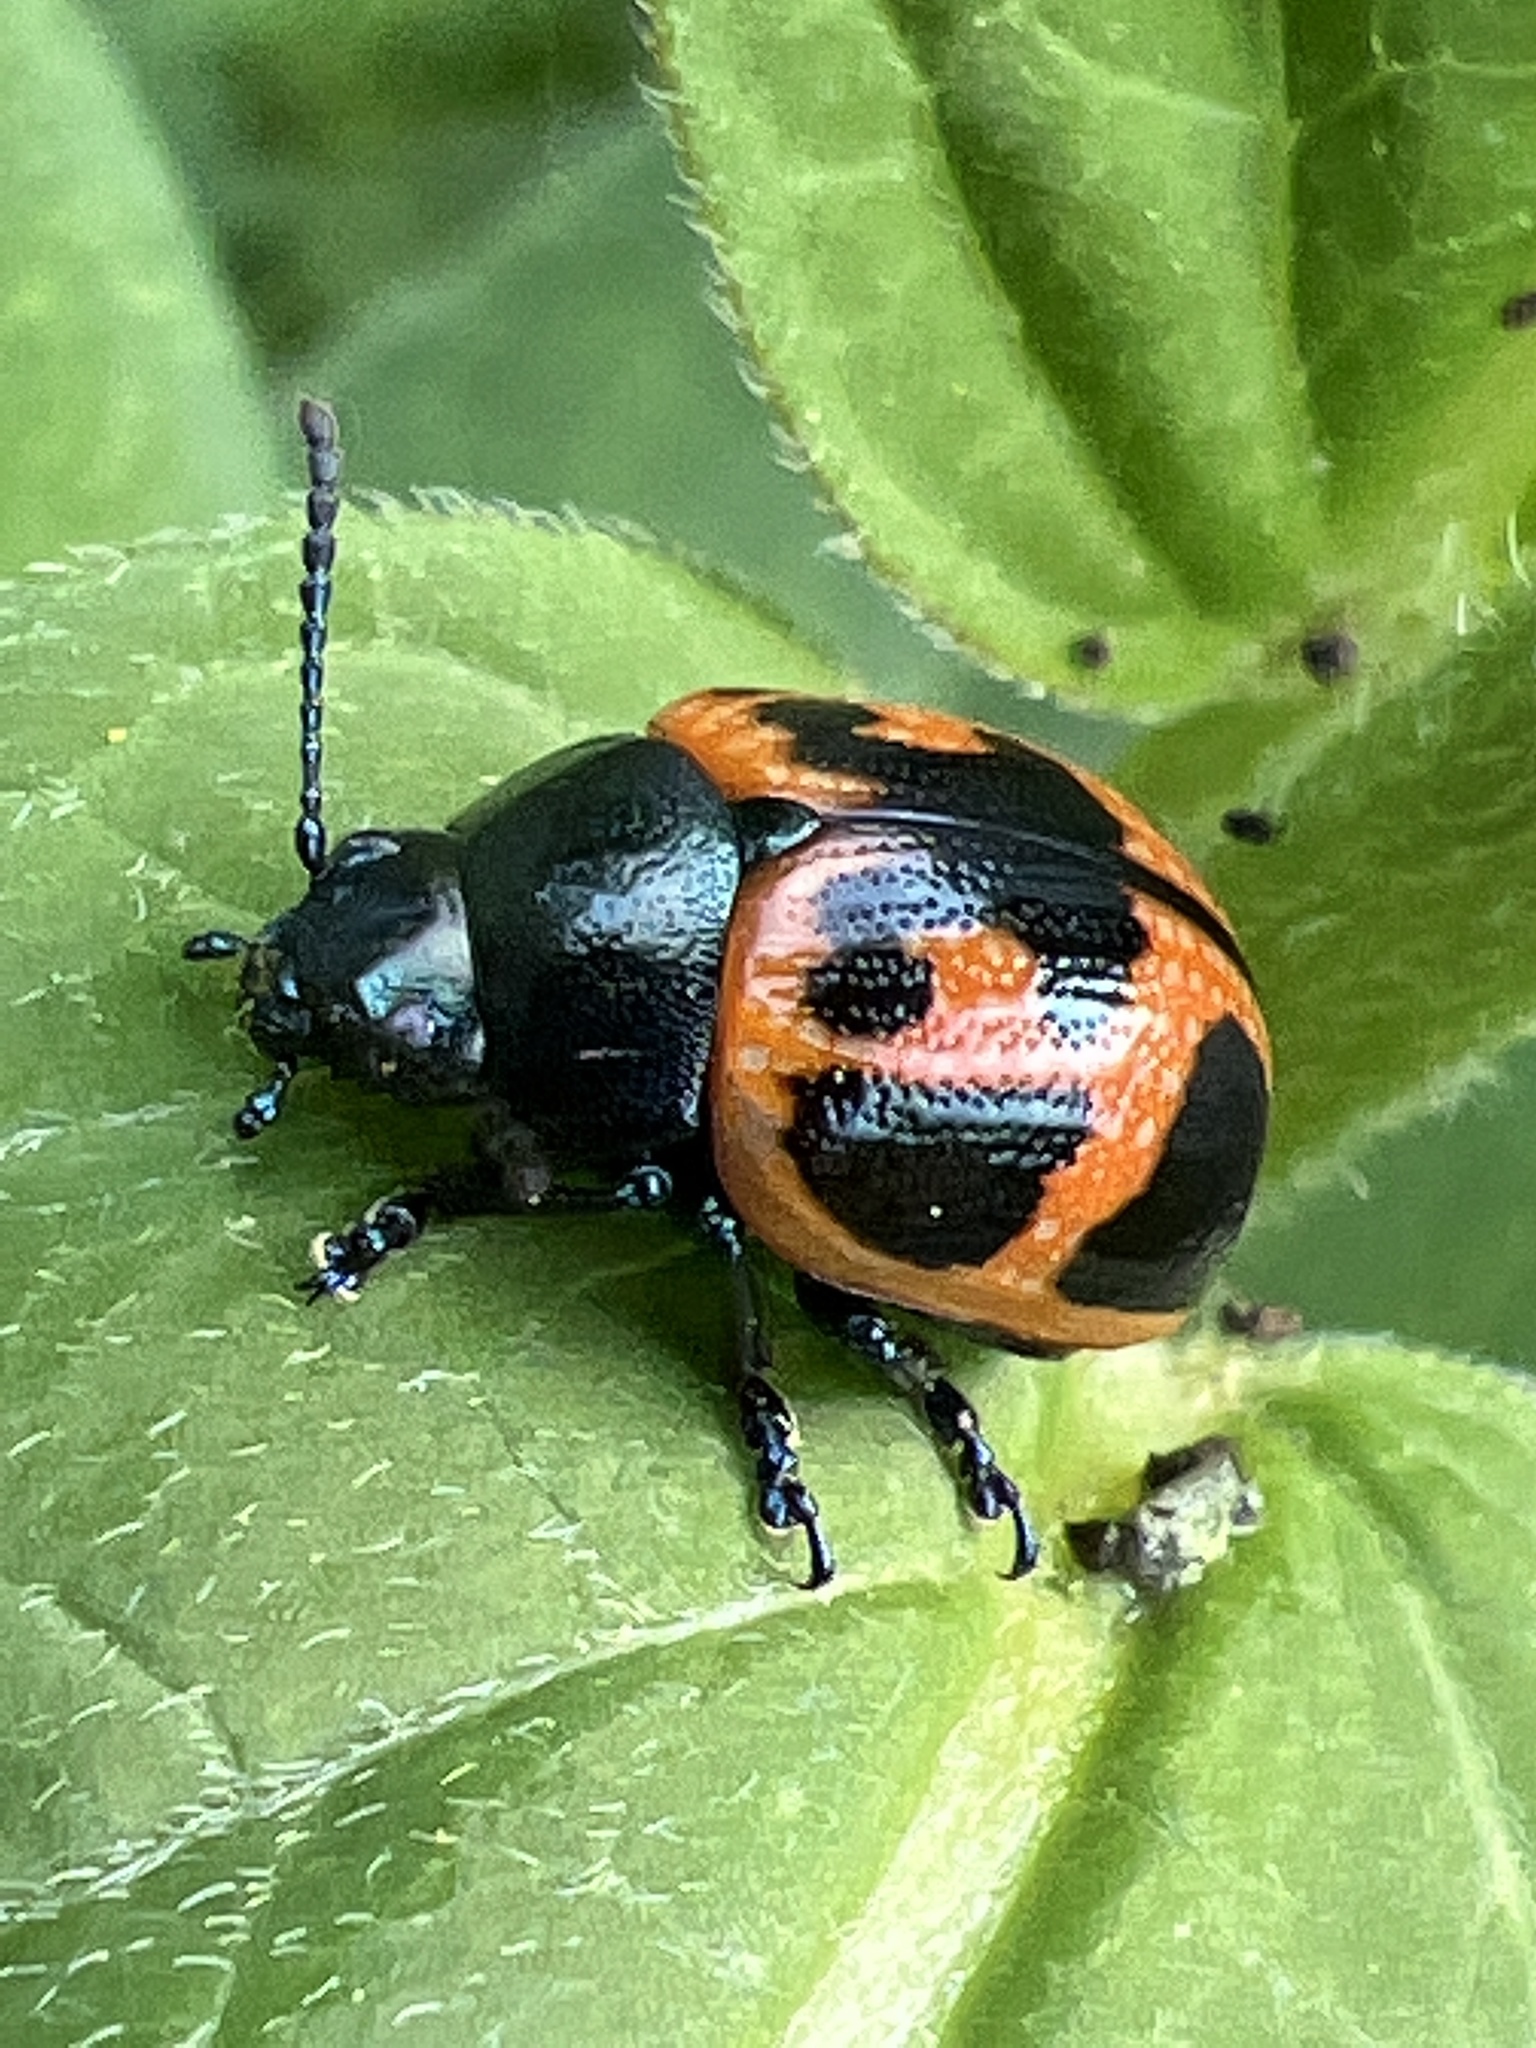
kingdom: Animalia
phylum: Arthropoda
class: Insecta
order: Coleoptera
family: Chrysomelidae
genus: Labidomera
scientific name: Labidomera clivicollis
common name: Swamp milkweed leaf beetle
